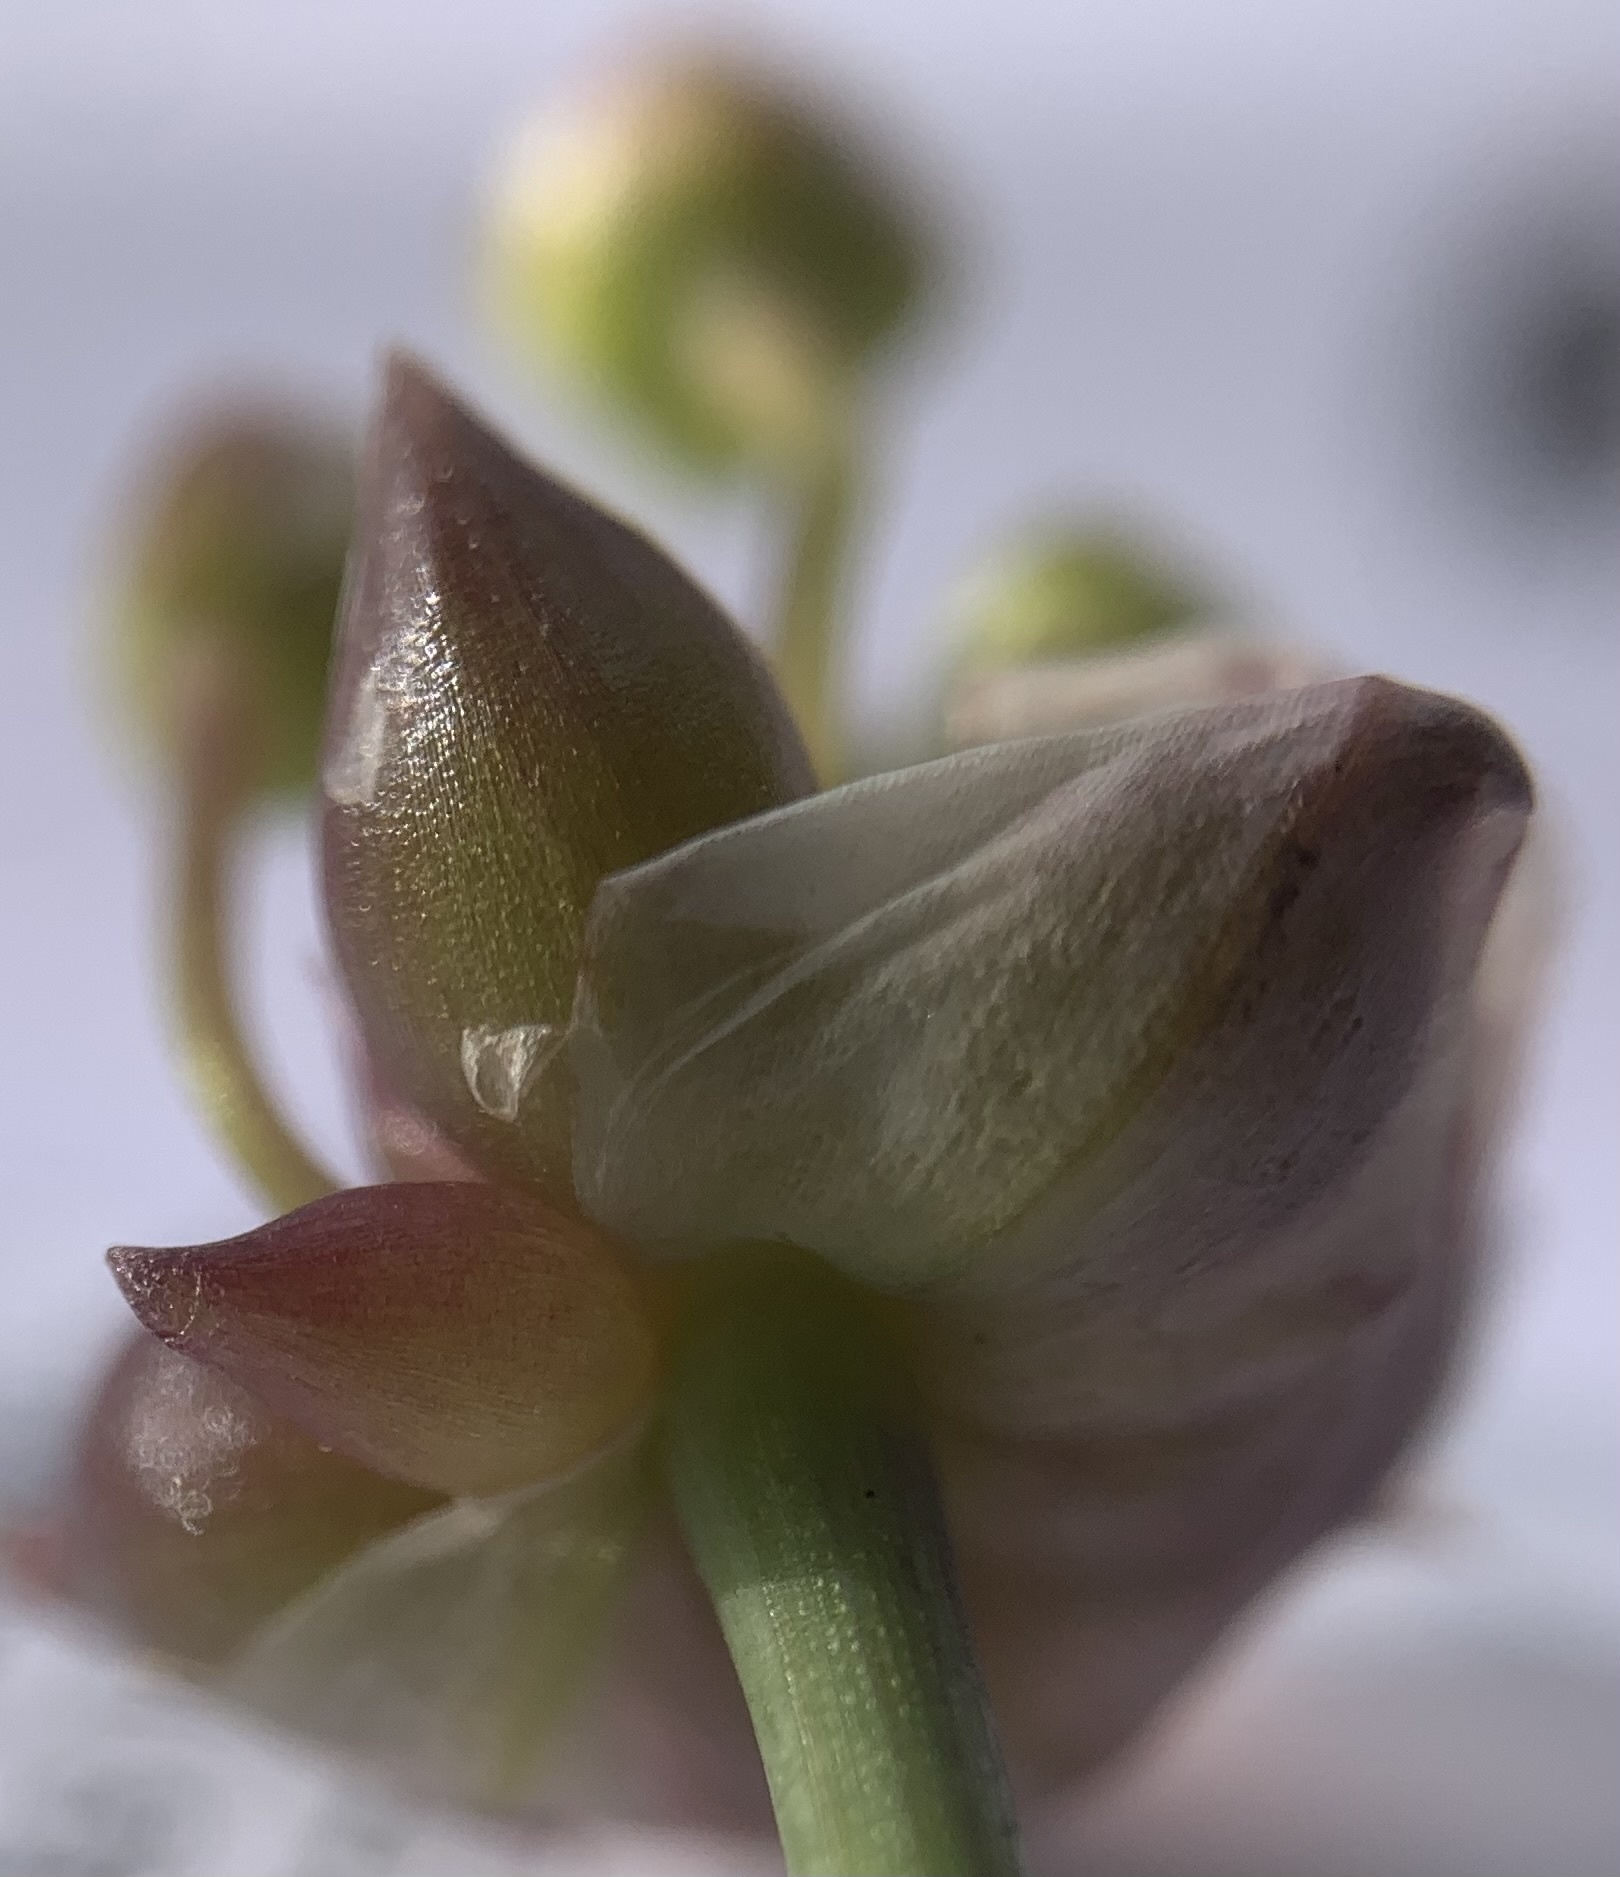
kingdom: Plantae
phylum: Tracheophyta
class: Liliopsida
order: Asparagales
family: Amaryllidaceae
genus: Allium
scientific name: Allium geyeri
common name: Geyer's onion
